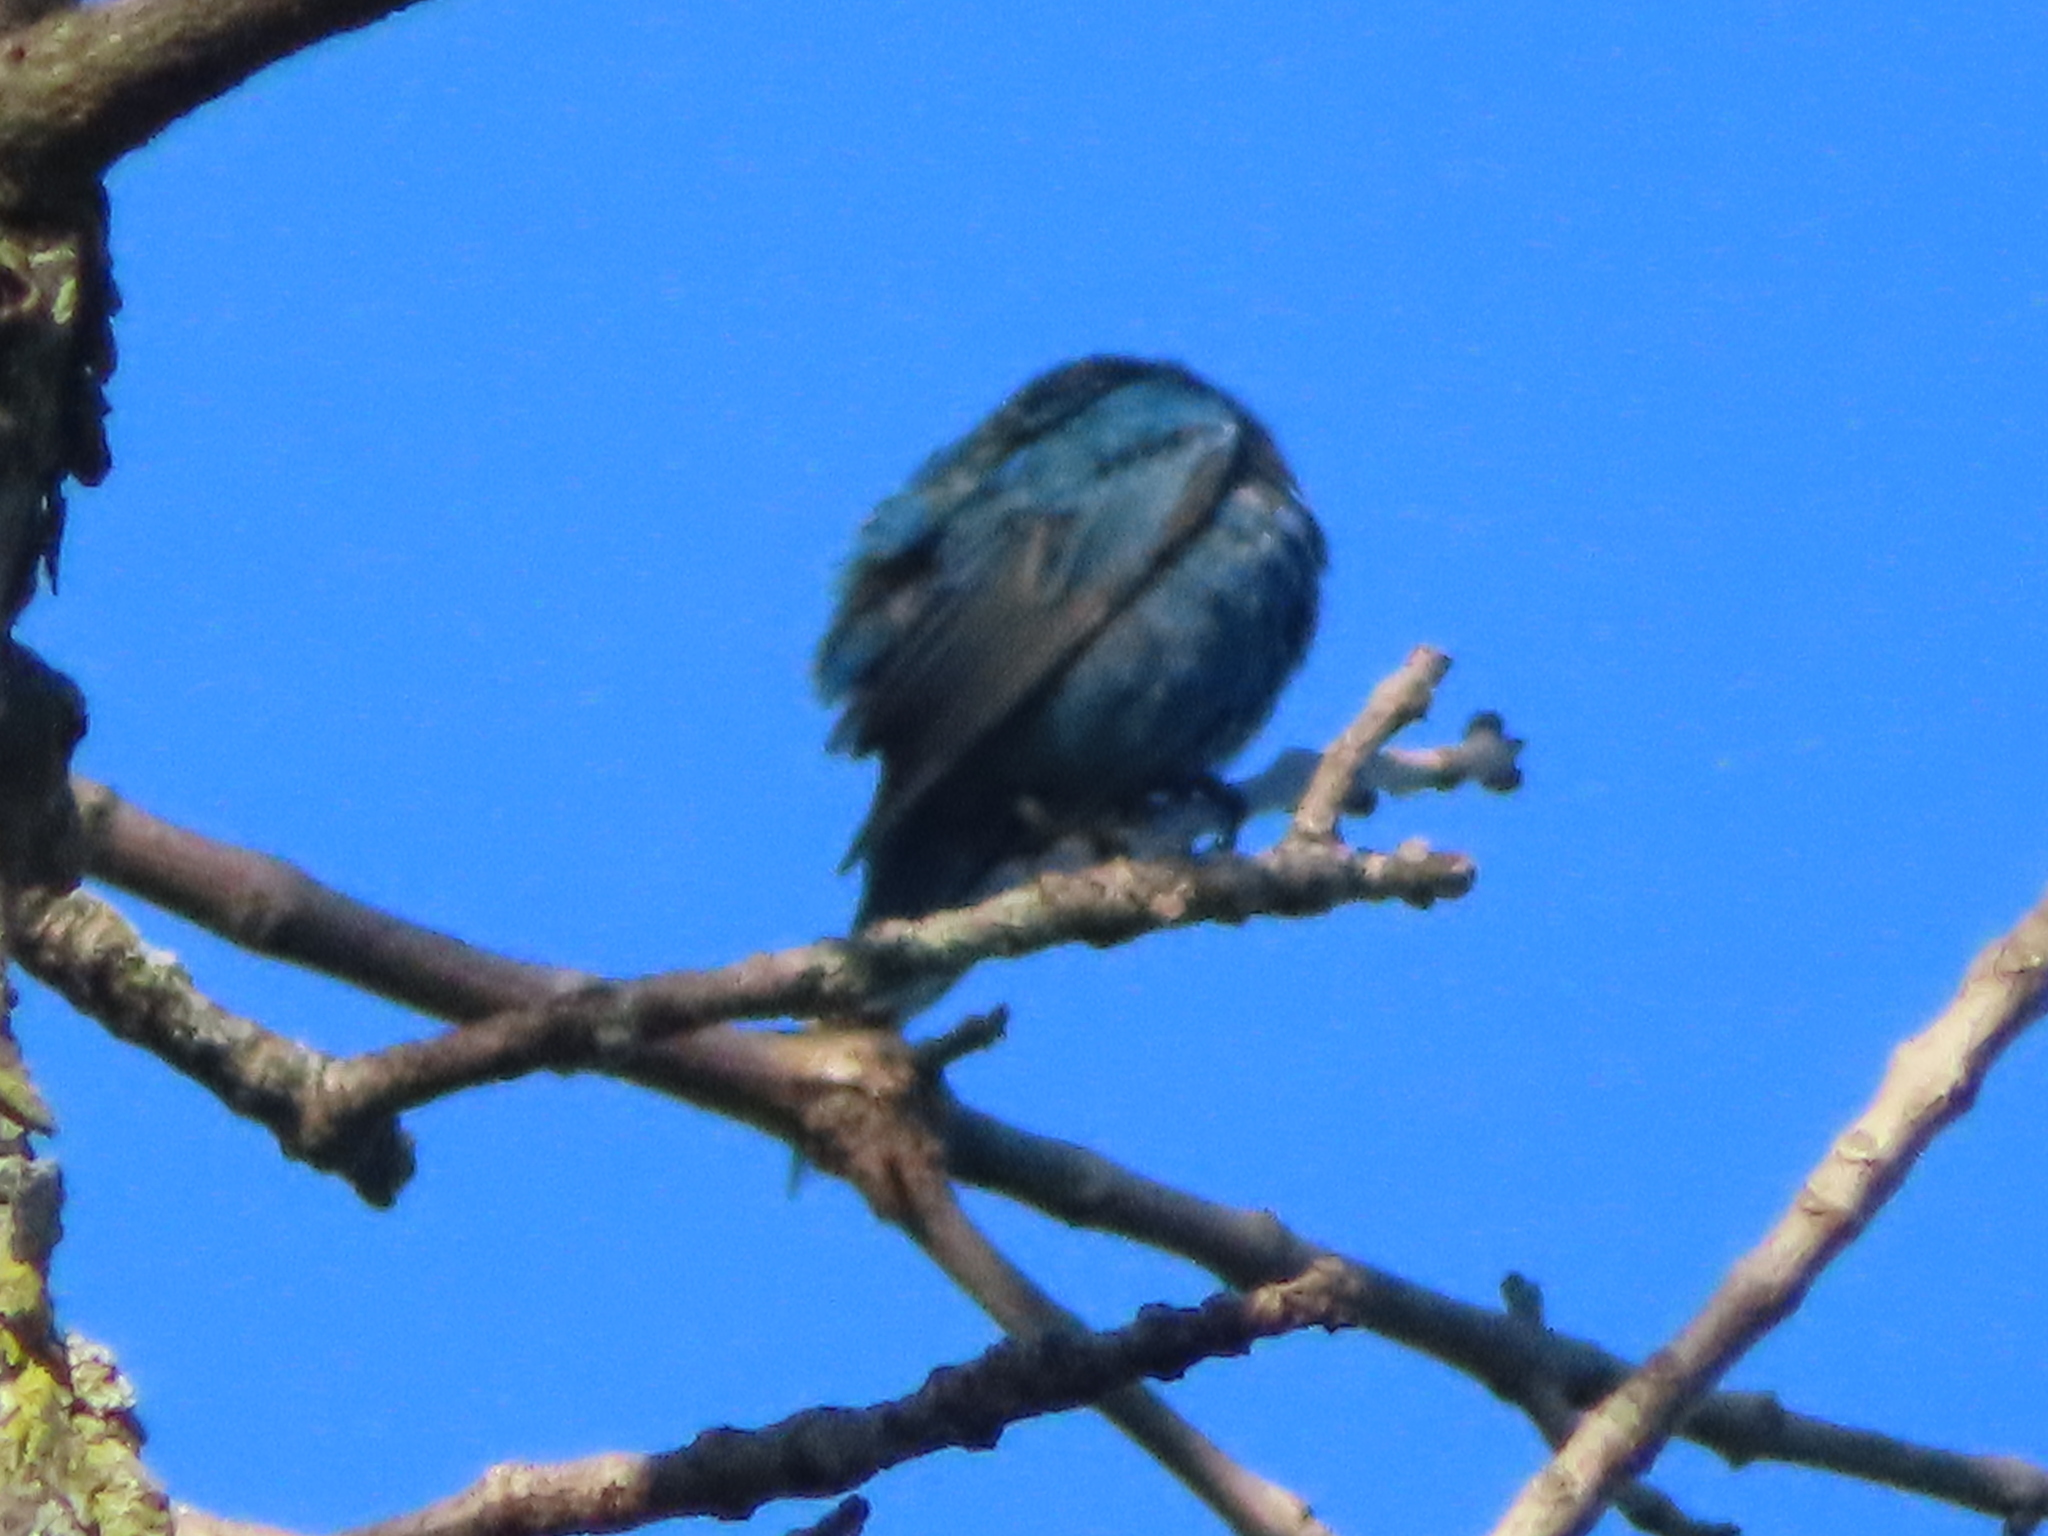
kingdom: Animalia
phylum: Chordata
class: Aves
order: Passeriformes
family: Cardinalidae
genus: Passerina
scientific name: Passerina cyanea
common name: Indigo bunting
